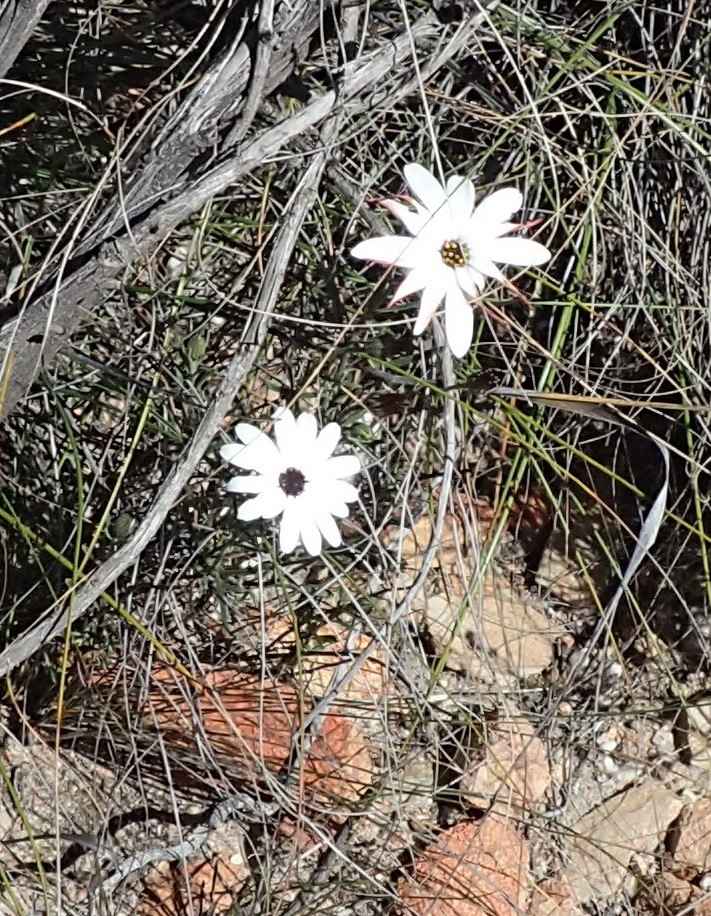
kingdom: Plantae
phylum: Tracheophyta
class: Magnoliopsida
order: Asterales
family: Asteraceae
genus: Dimorphotheca
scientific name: Dimorphotheca montana
